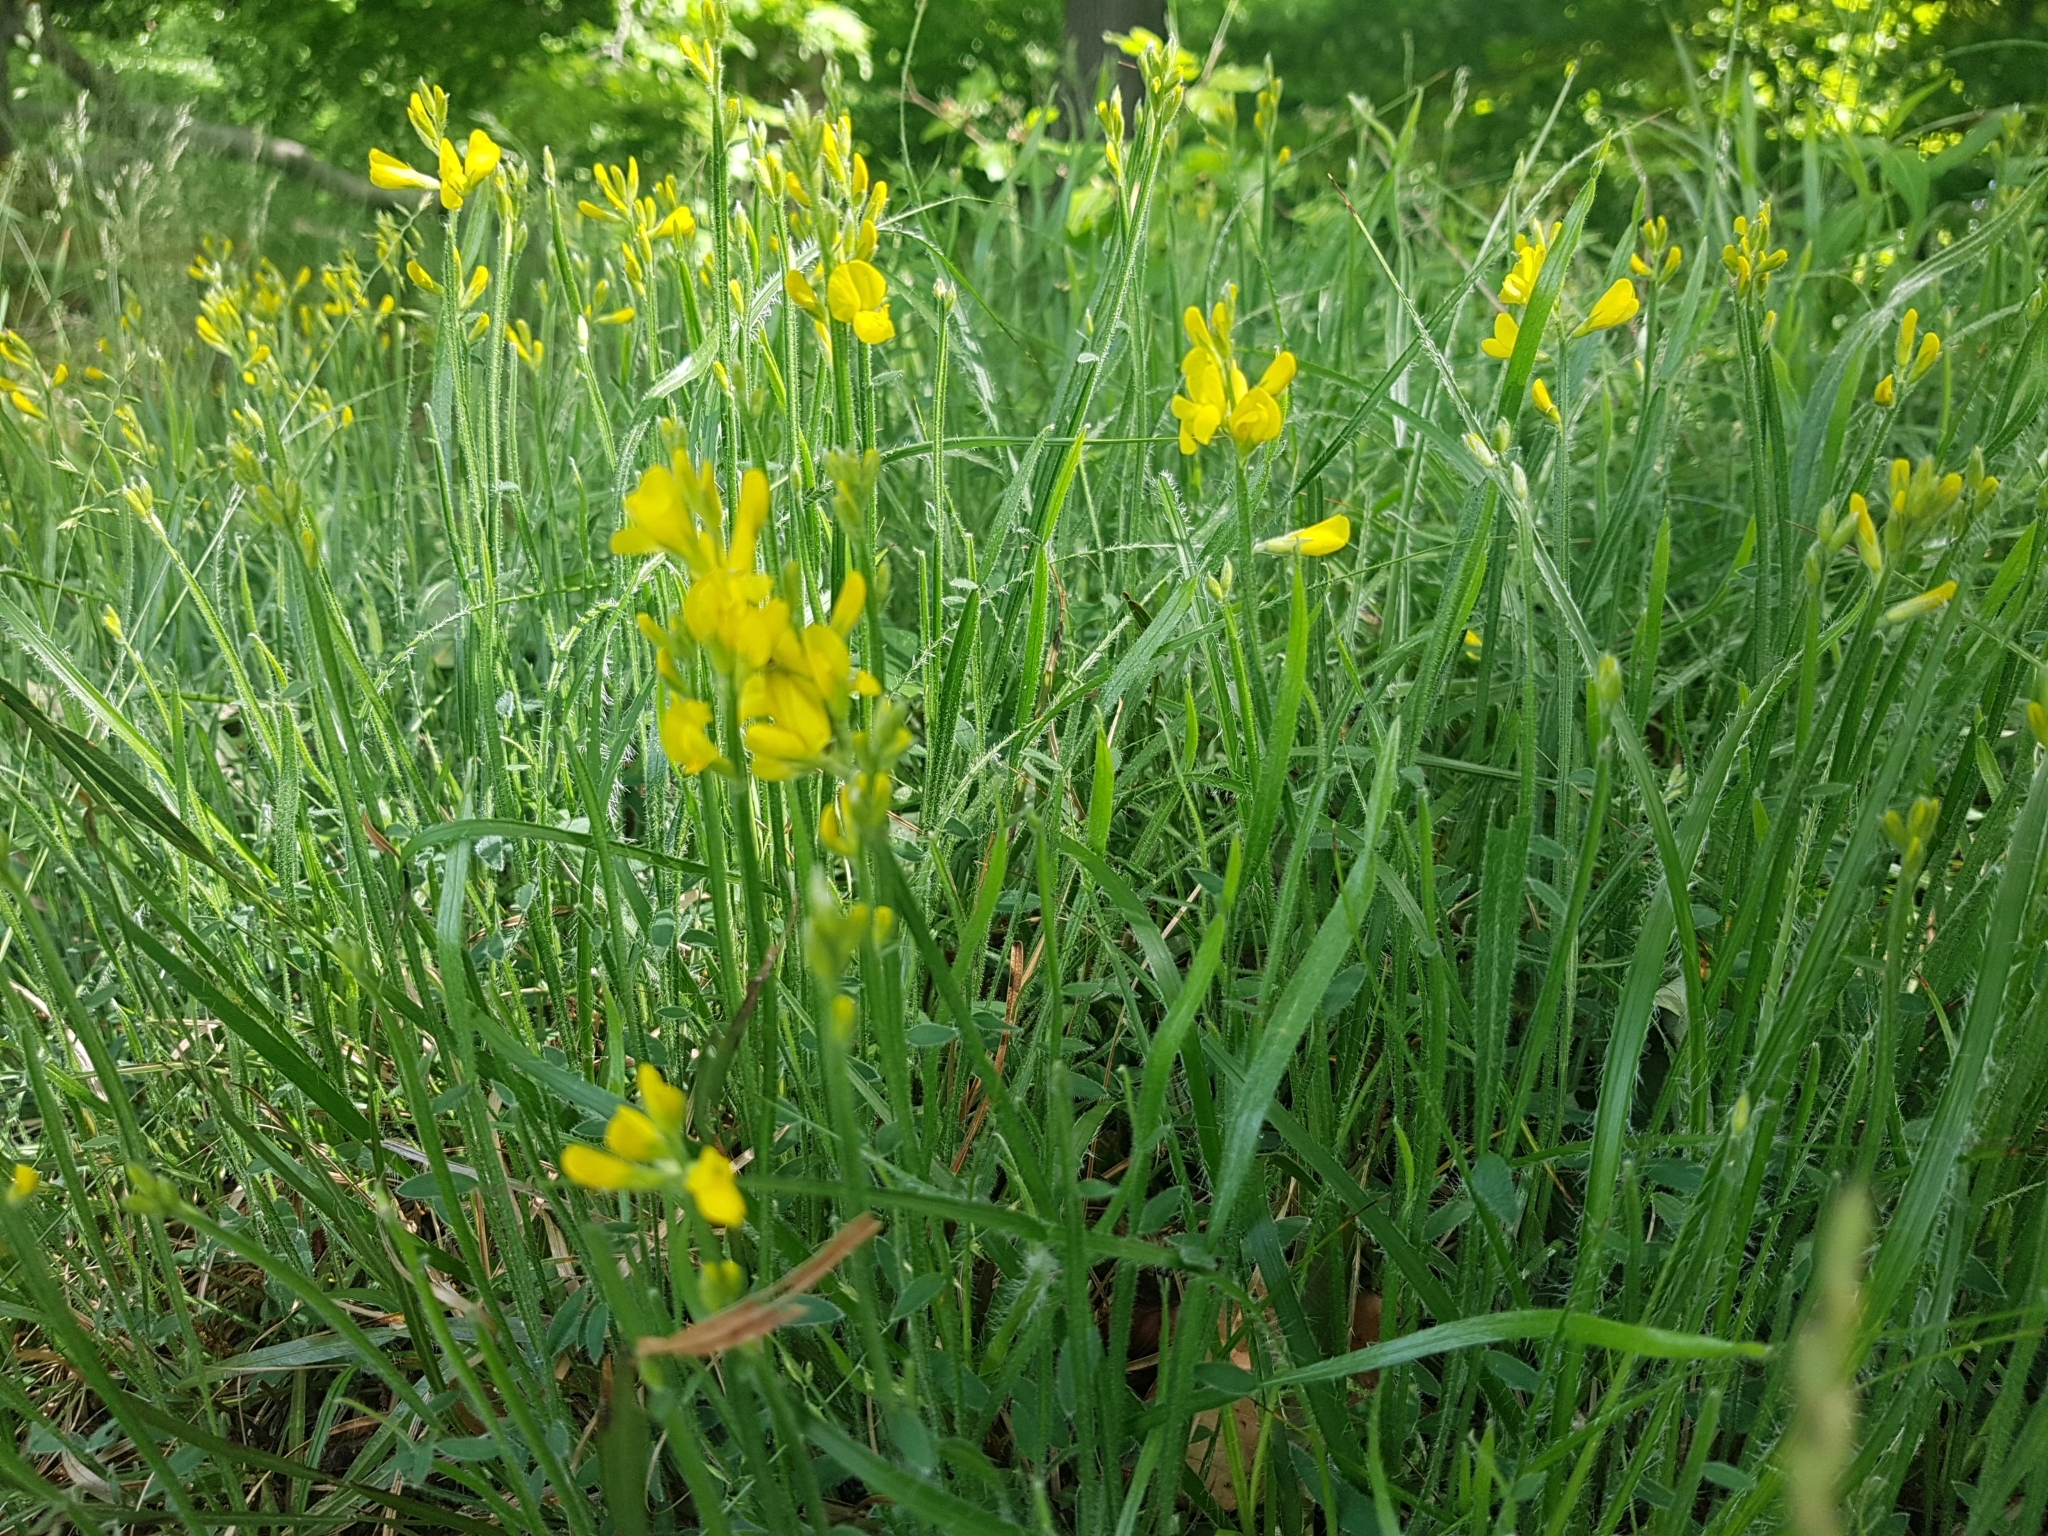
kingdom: Plantae
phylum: Tracheophyta
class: Magnoliopsida
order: Fabales
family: Fabaceae
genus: Genista
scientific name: Genista sagittalis
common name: Winged greenweed
